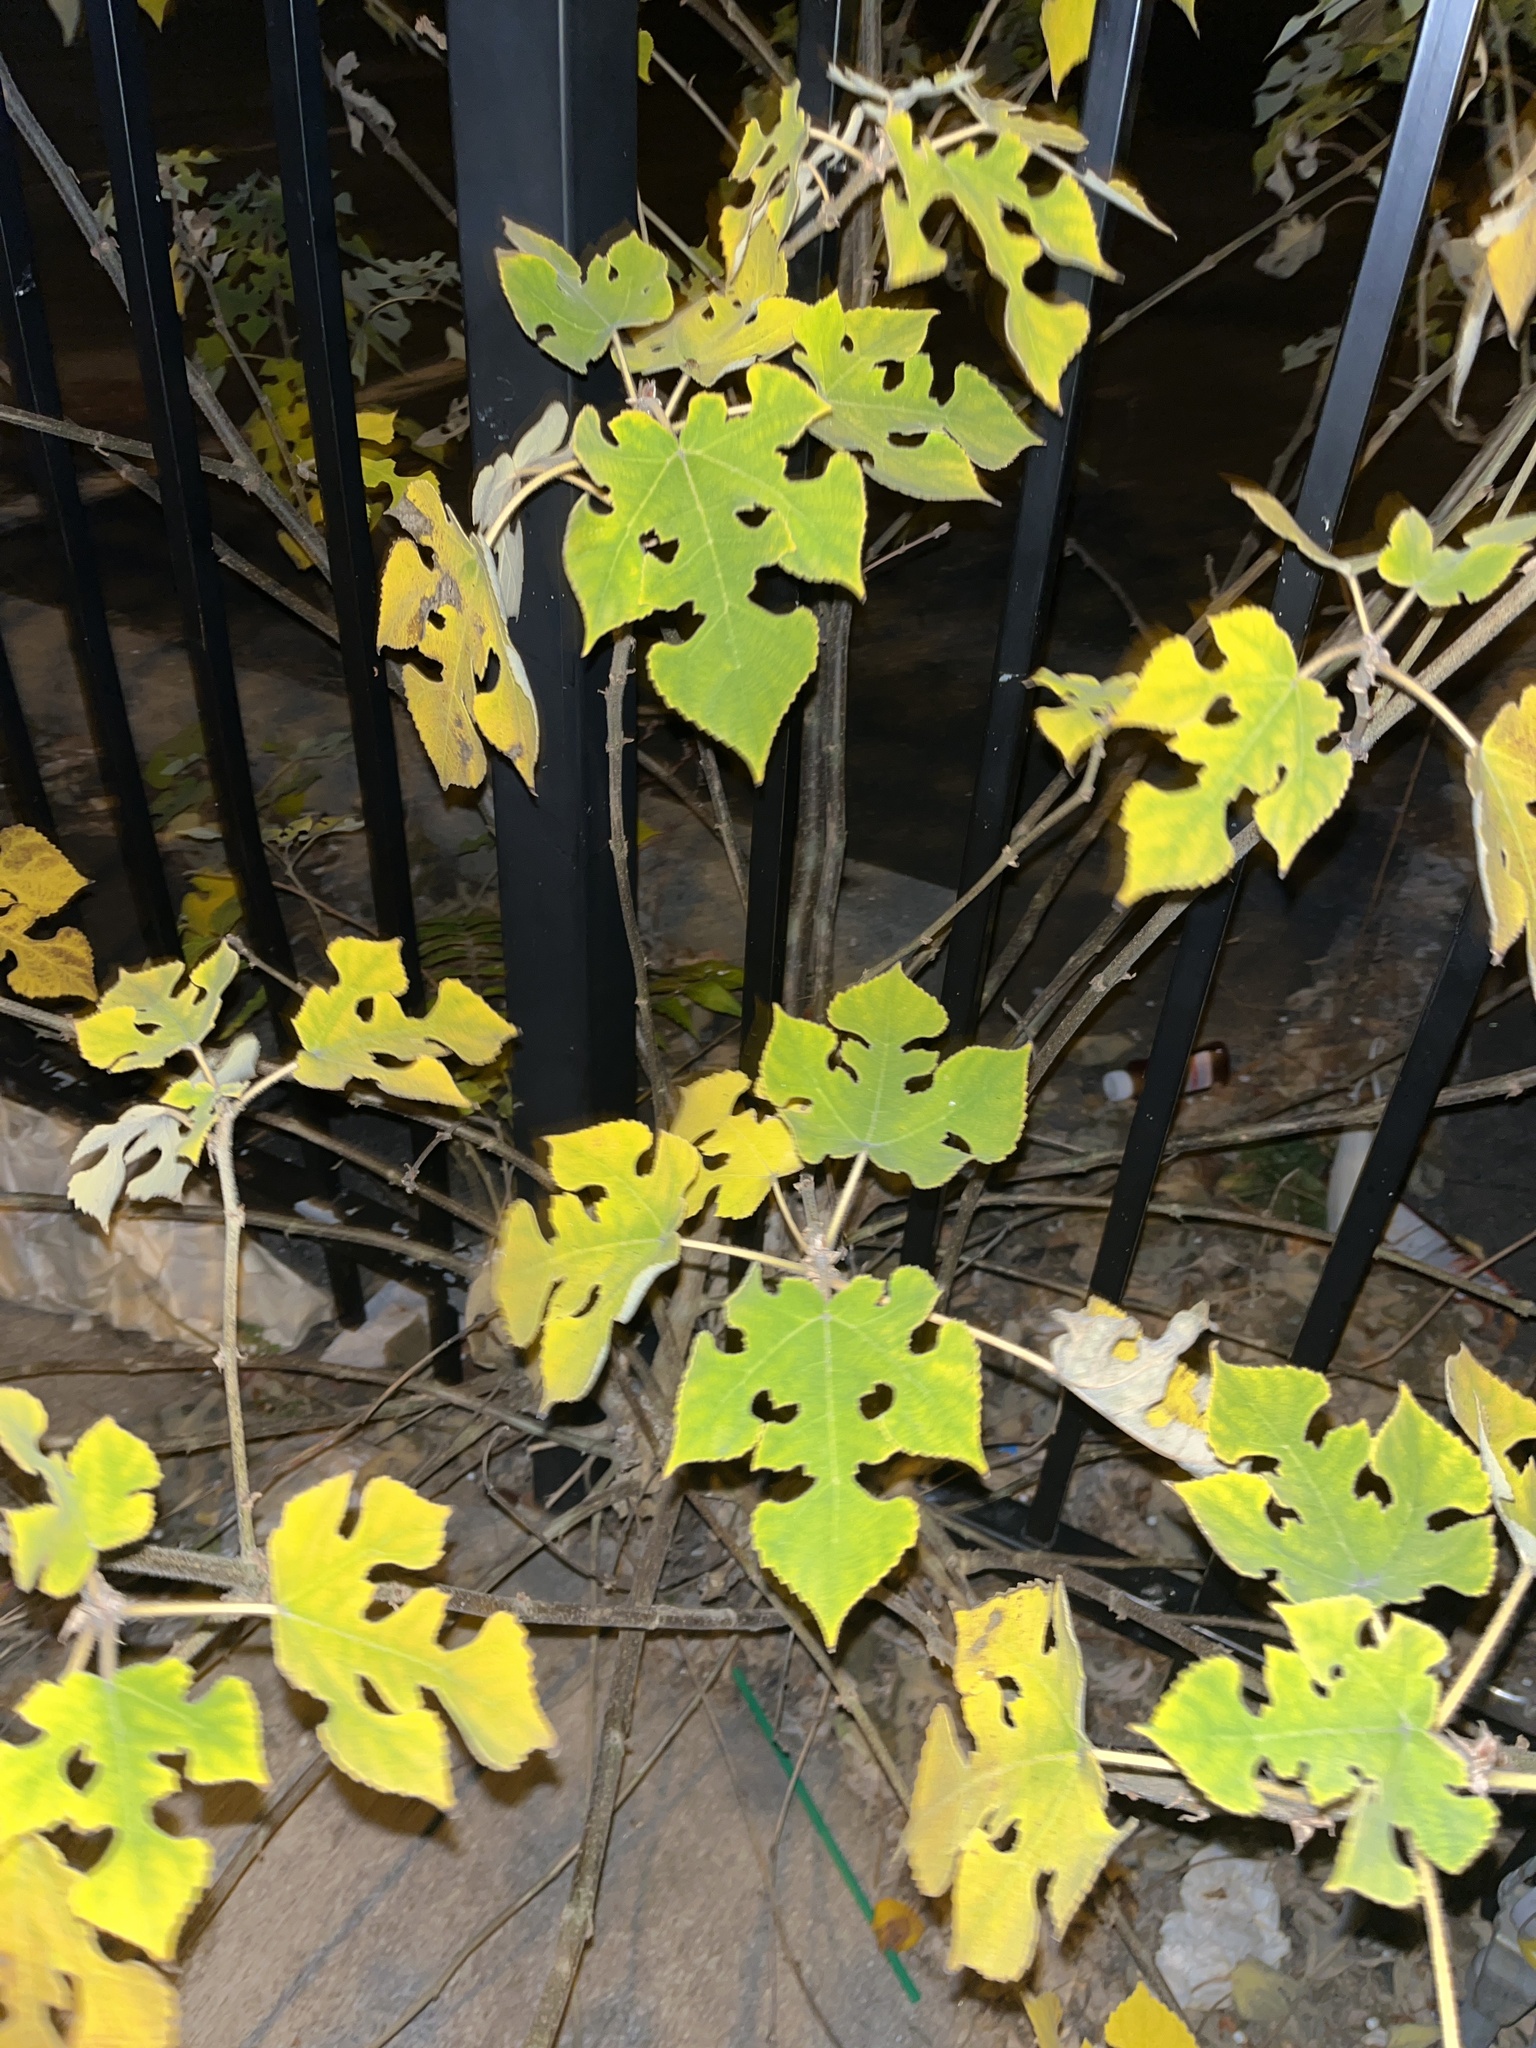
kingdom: Plantae
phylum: Tracheophyta
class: Magnoliopsida
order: Rosales
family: Moraceae
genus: Broussonetia
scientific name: Broussonetia papyrifera
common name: Paper mulberry
